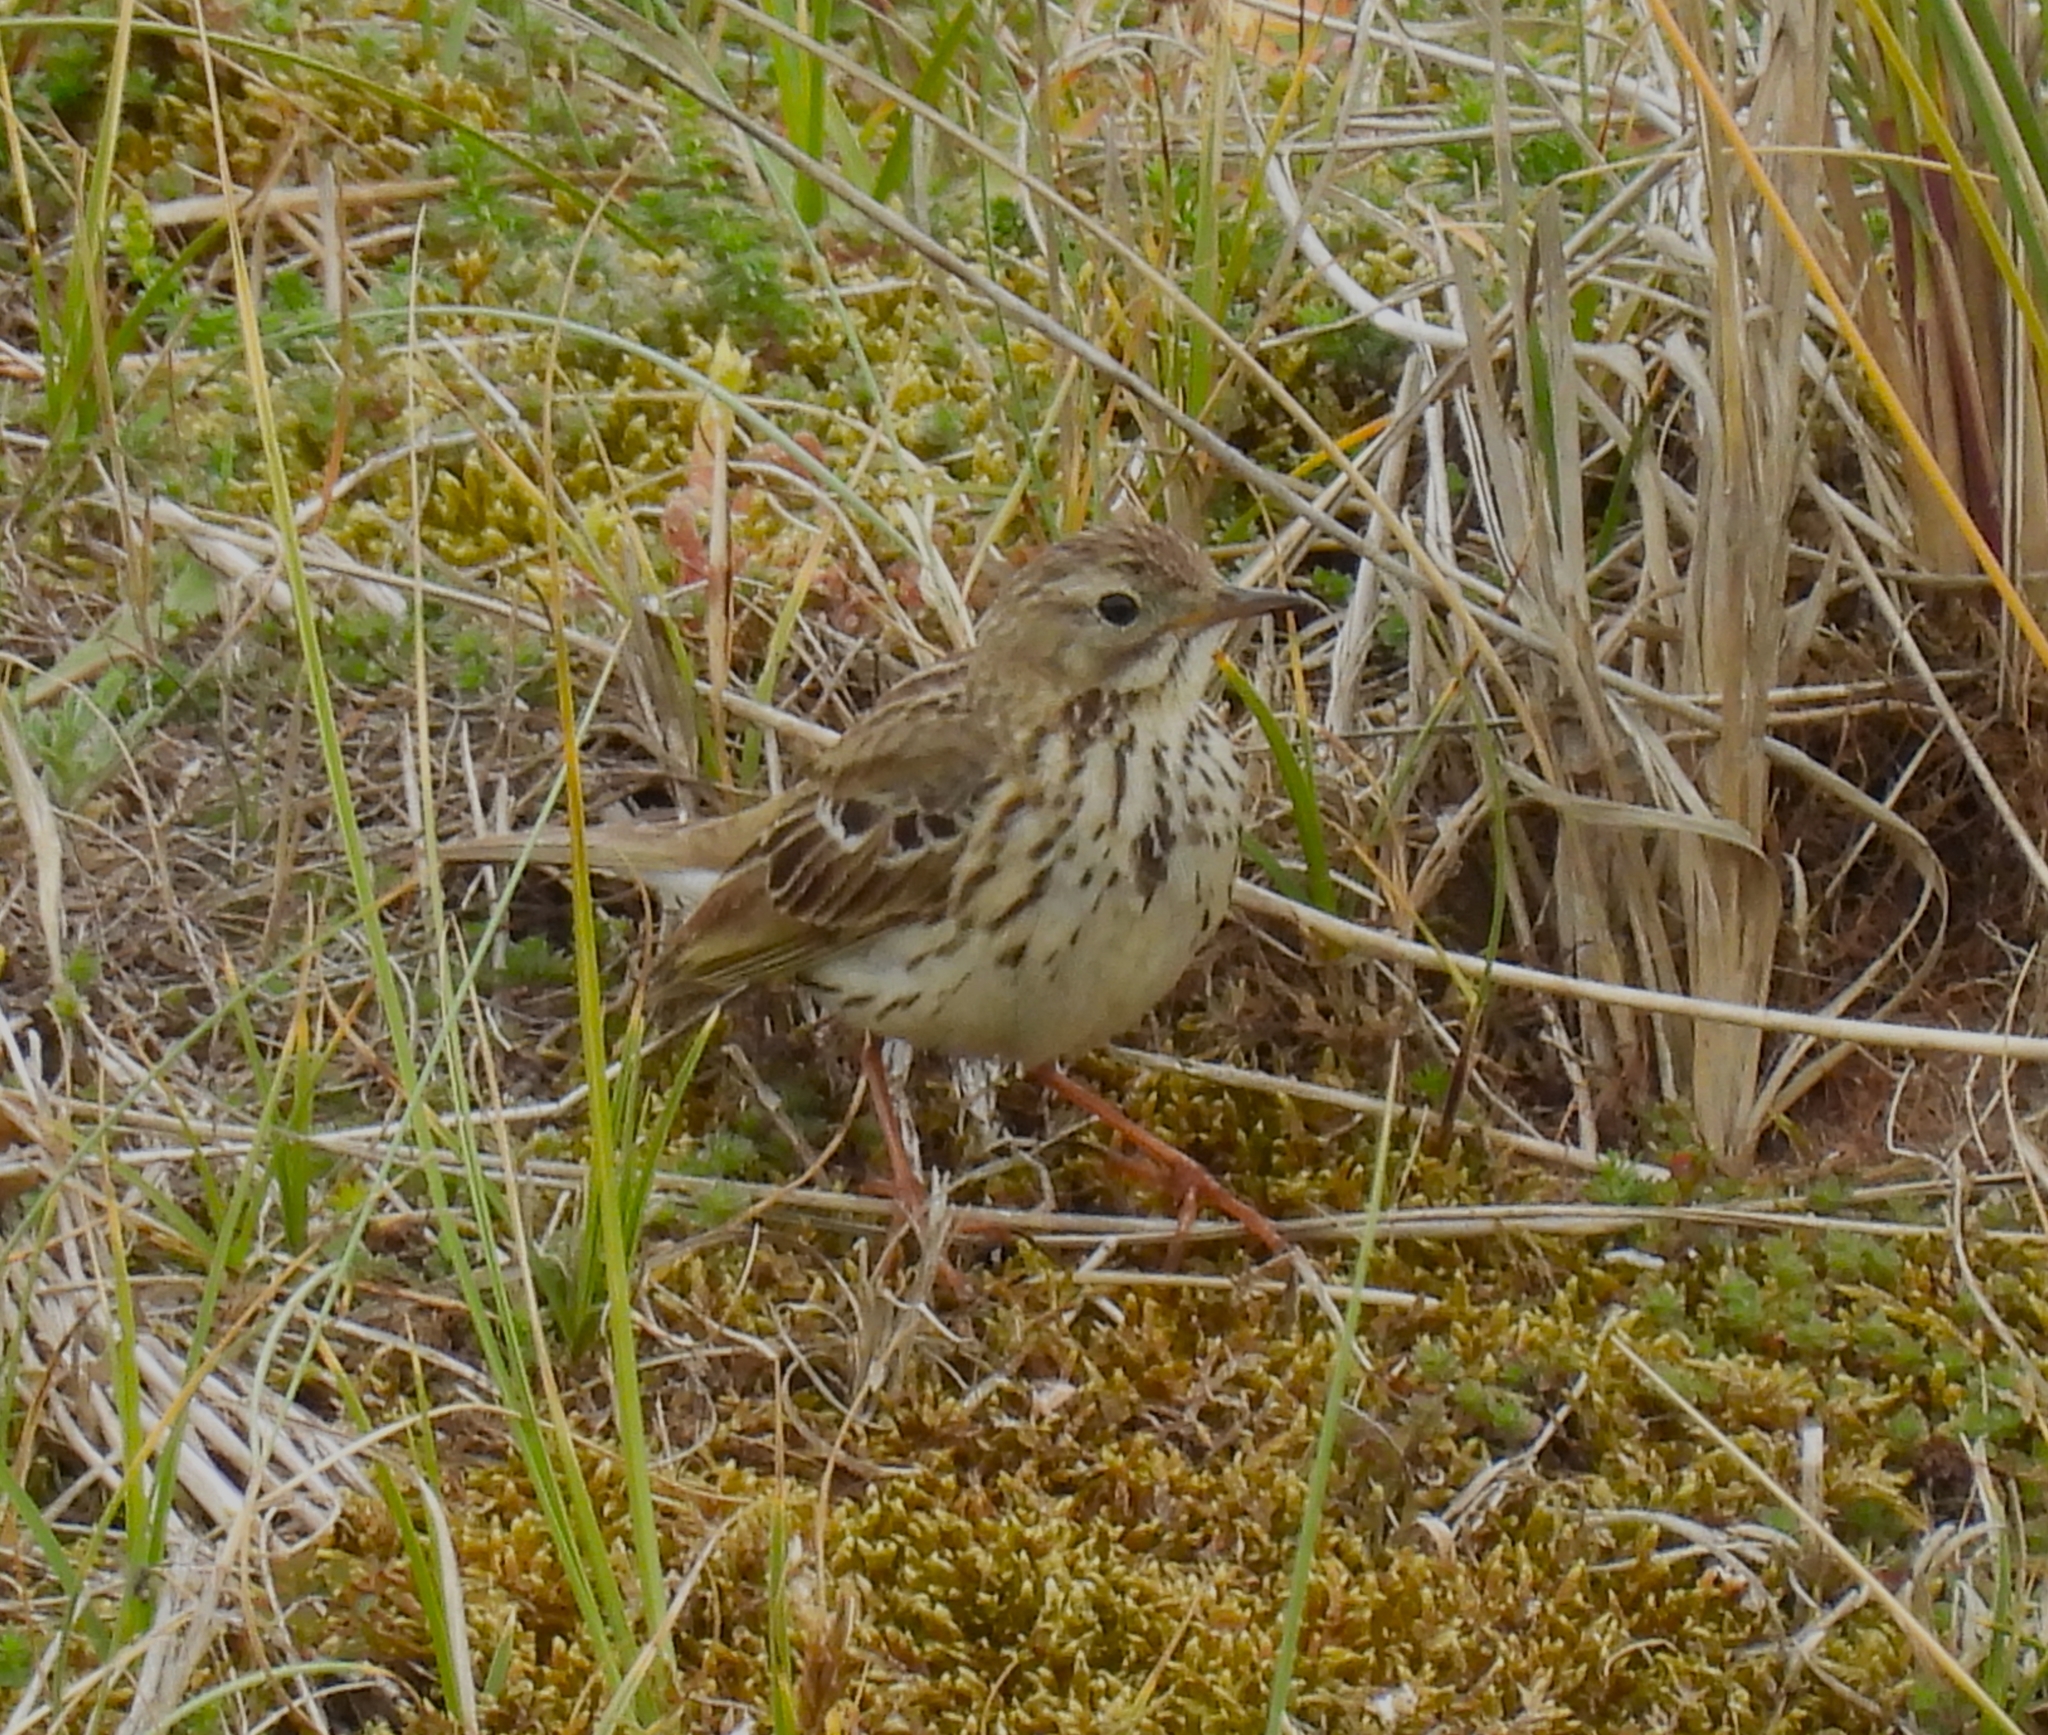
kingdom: Animalia
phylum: Chordata
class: Aves
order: Passeriformes
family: Motacillidae
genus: Anthus
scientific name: Anthus pratensis
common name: Meadow pipit
